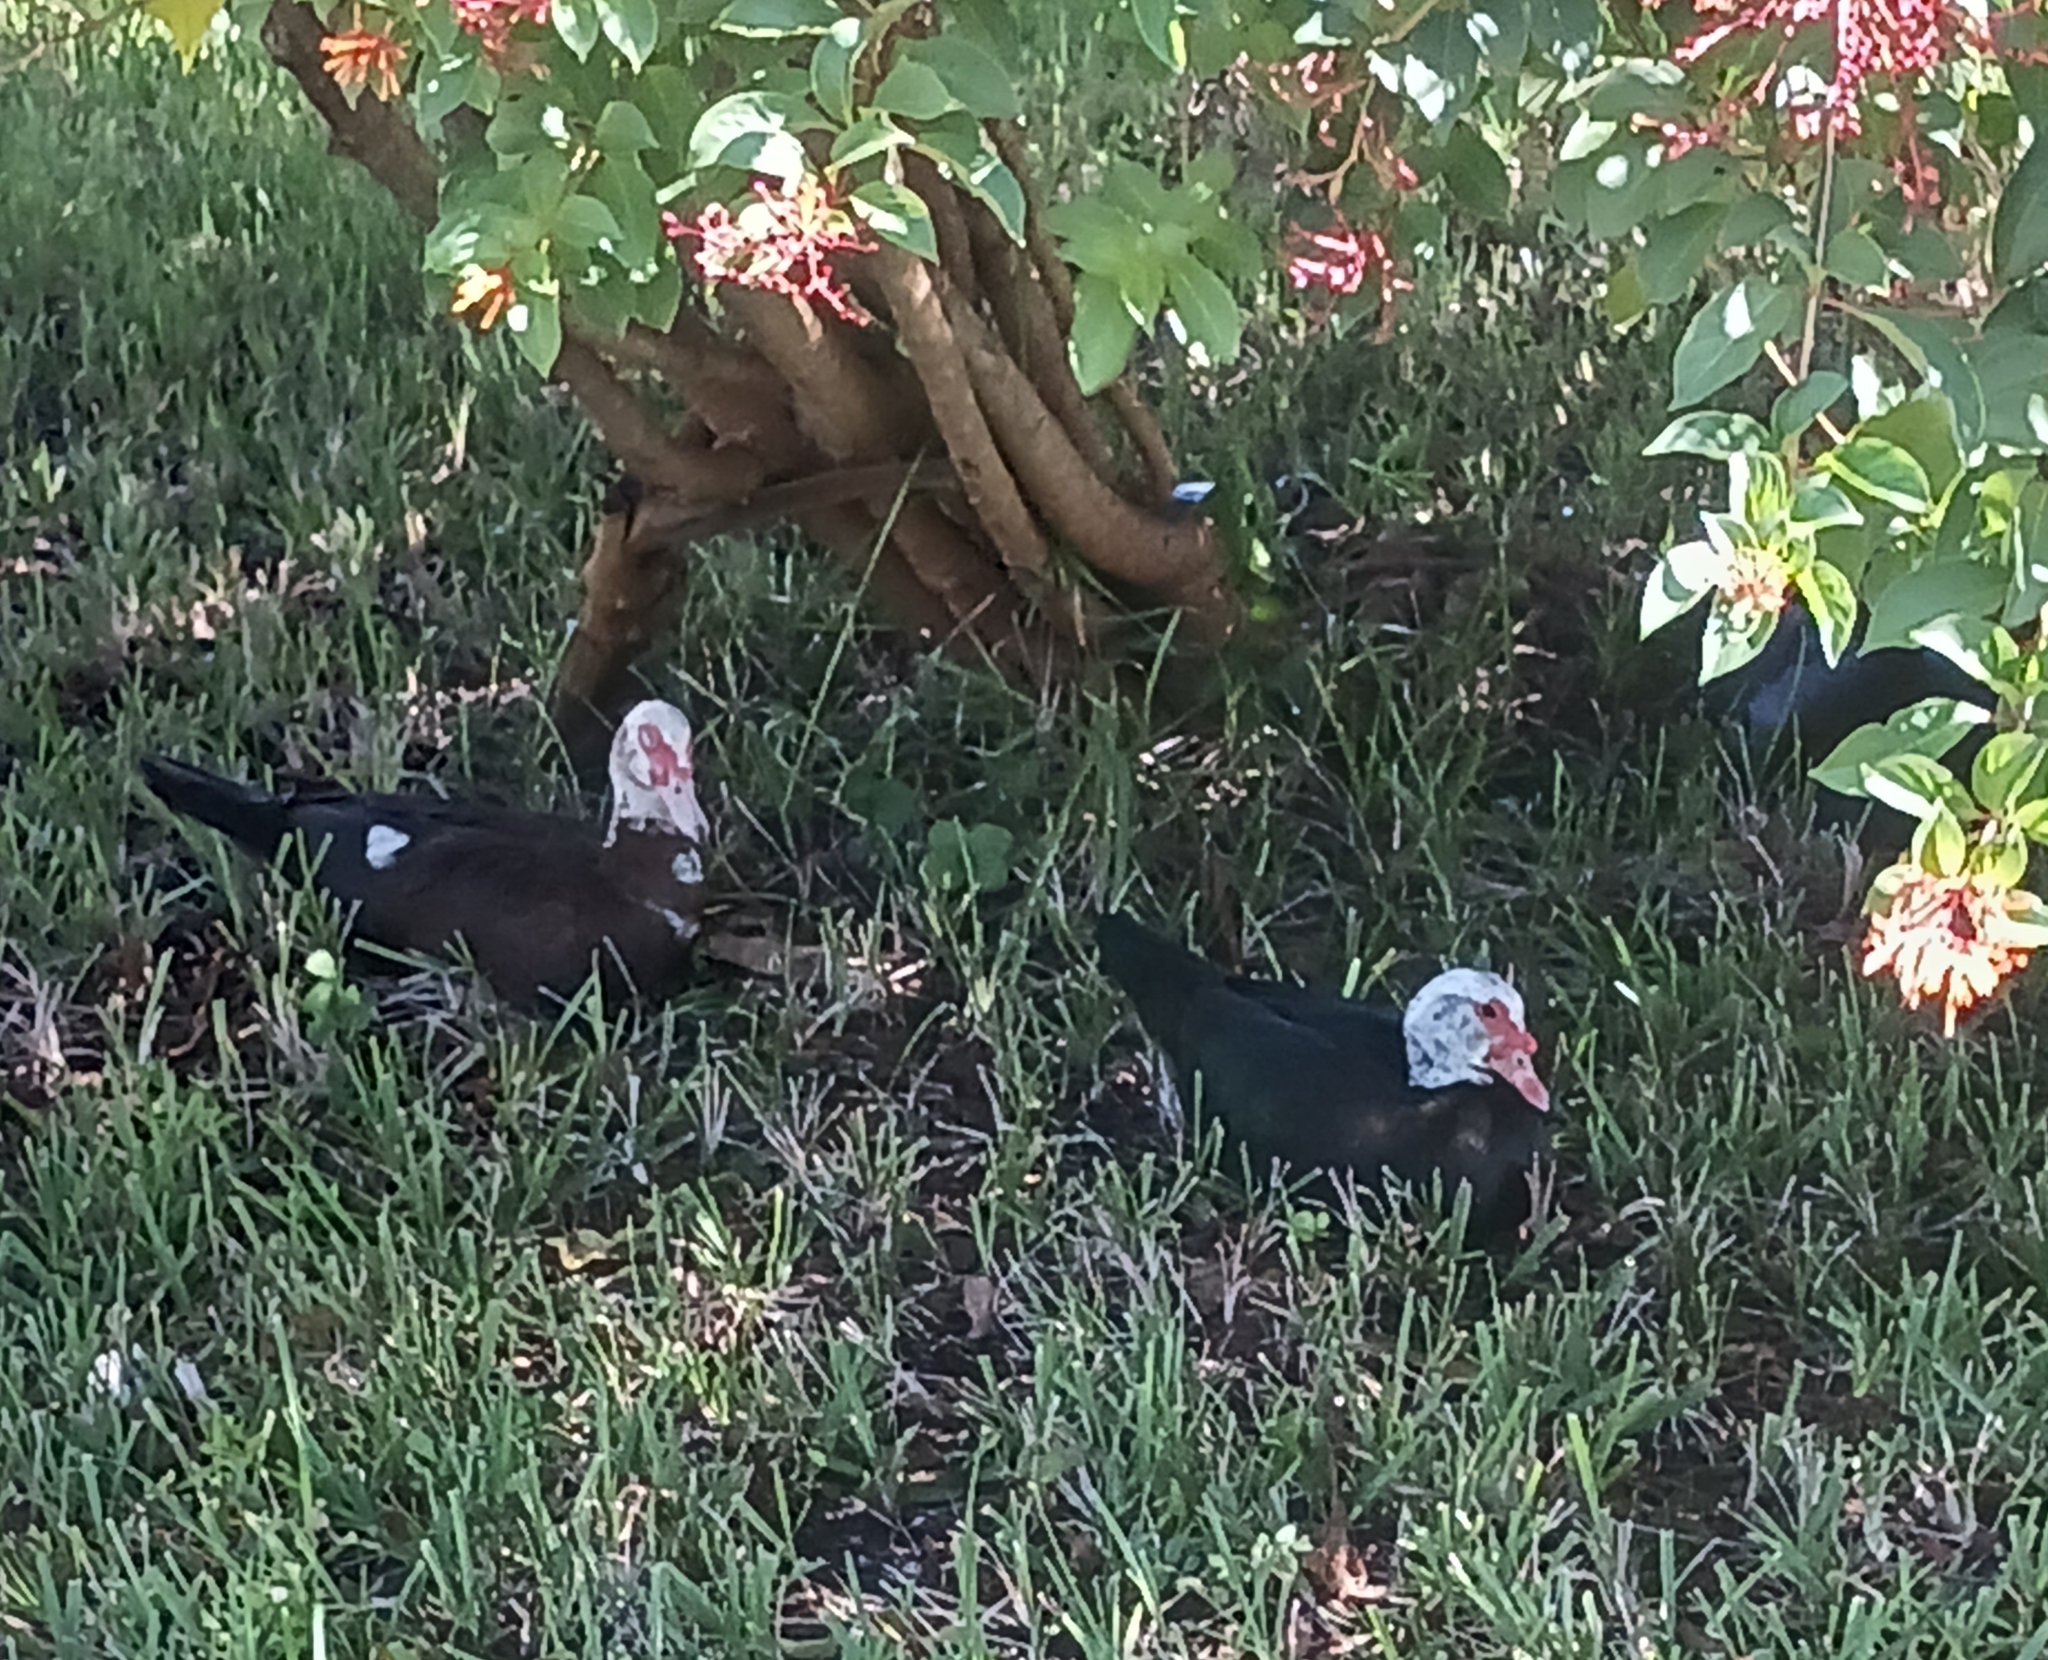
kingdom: Animalia
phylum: Chordata
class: Aves
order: Anseriformes
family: Anatidae
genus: Cairina
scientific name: Cairina moschata
